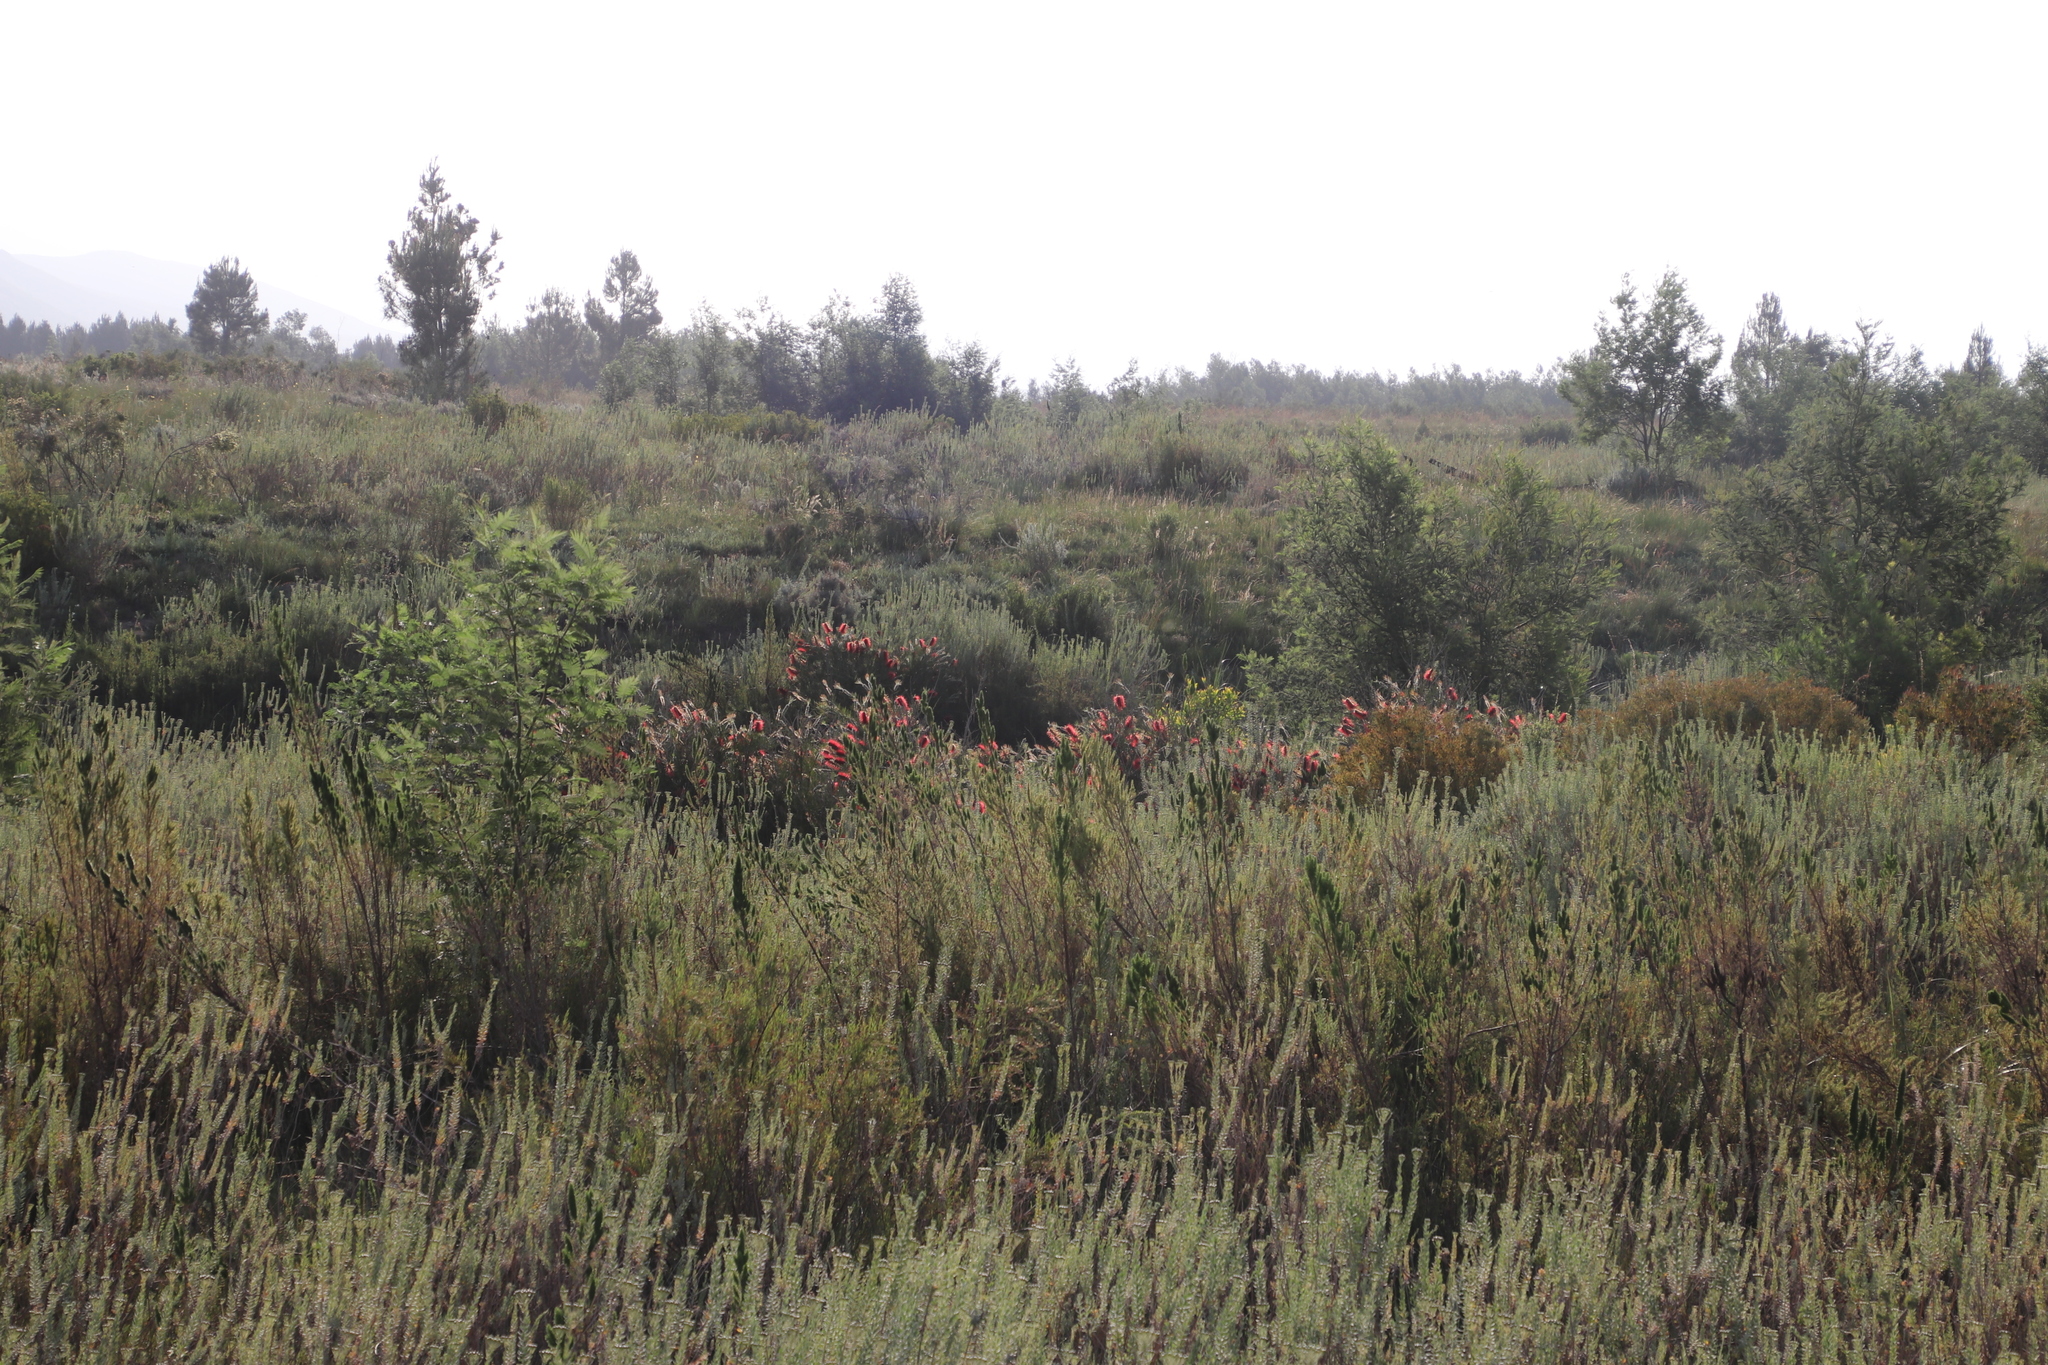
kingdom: Plantae
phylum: Tracheophyta
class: Magnoliopsida
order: Myrtales
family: Myrtaceae
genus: Callistemon
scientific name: Callistemon linearis
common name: Narrow-leaf bottlebrush
